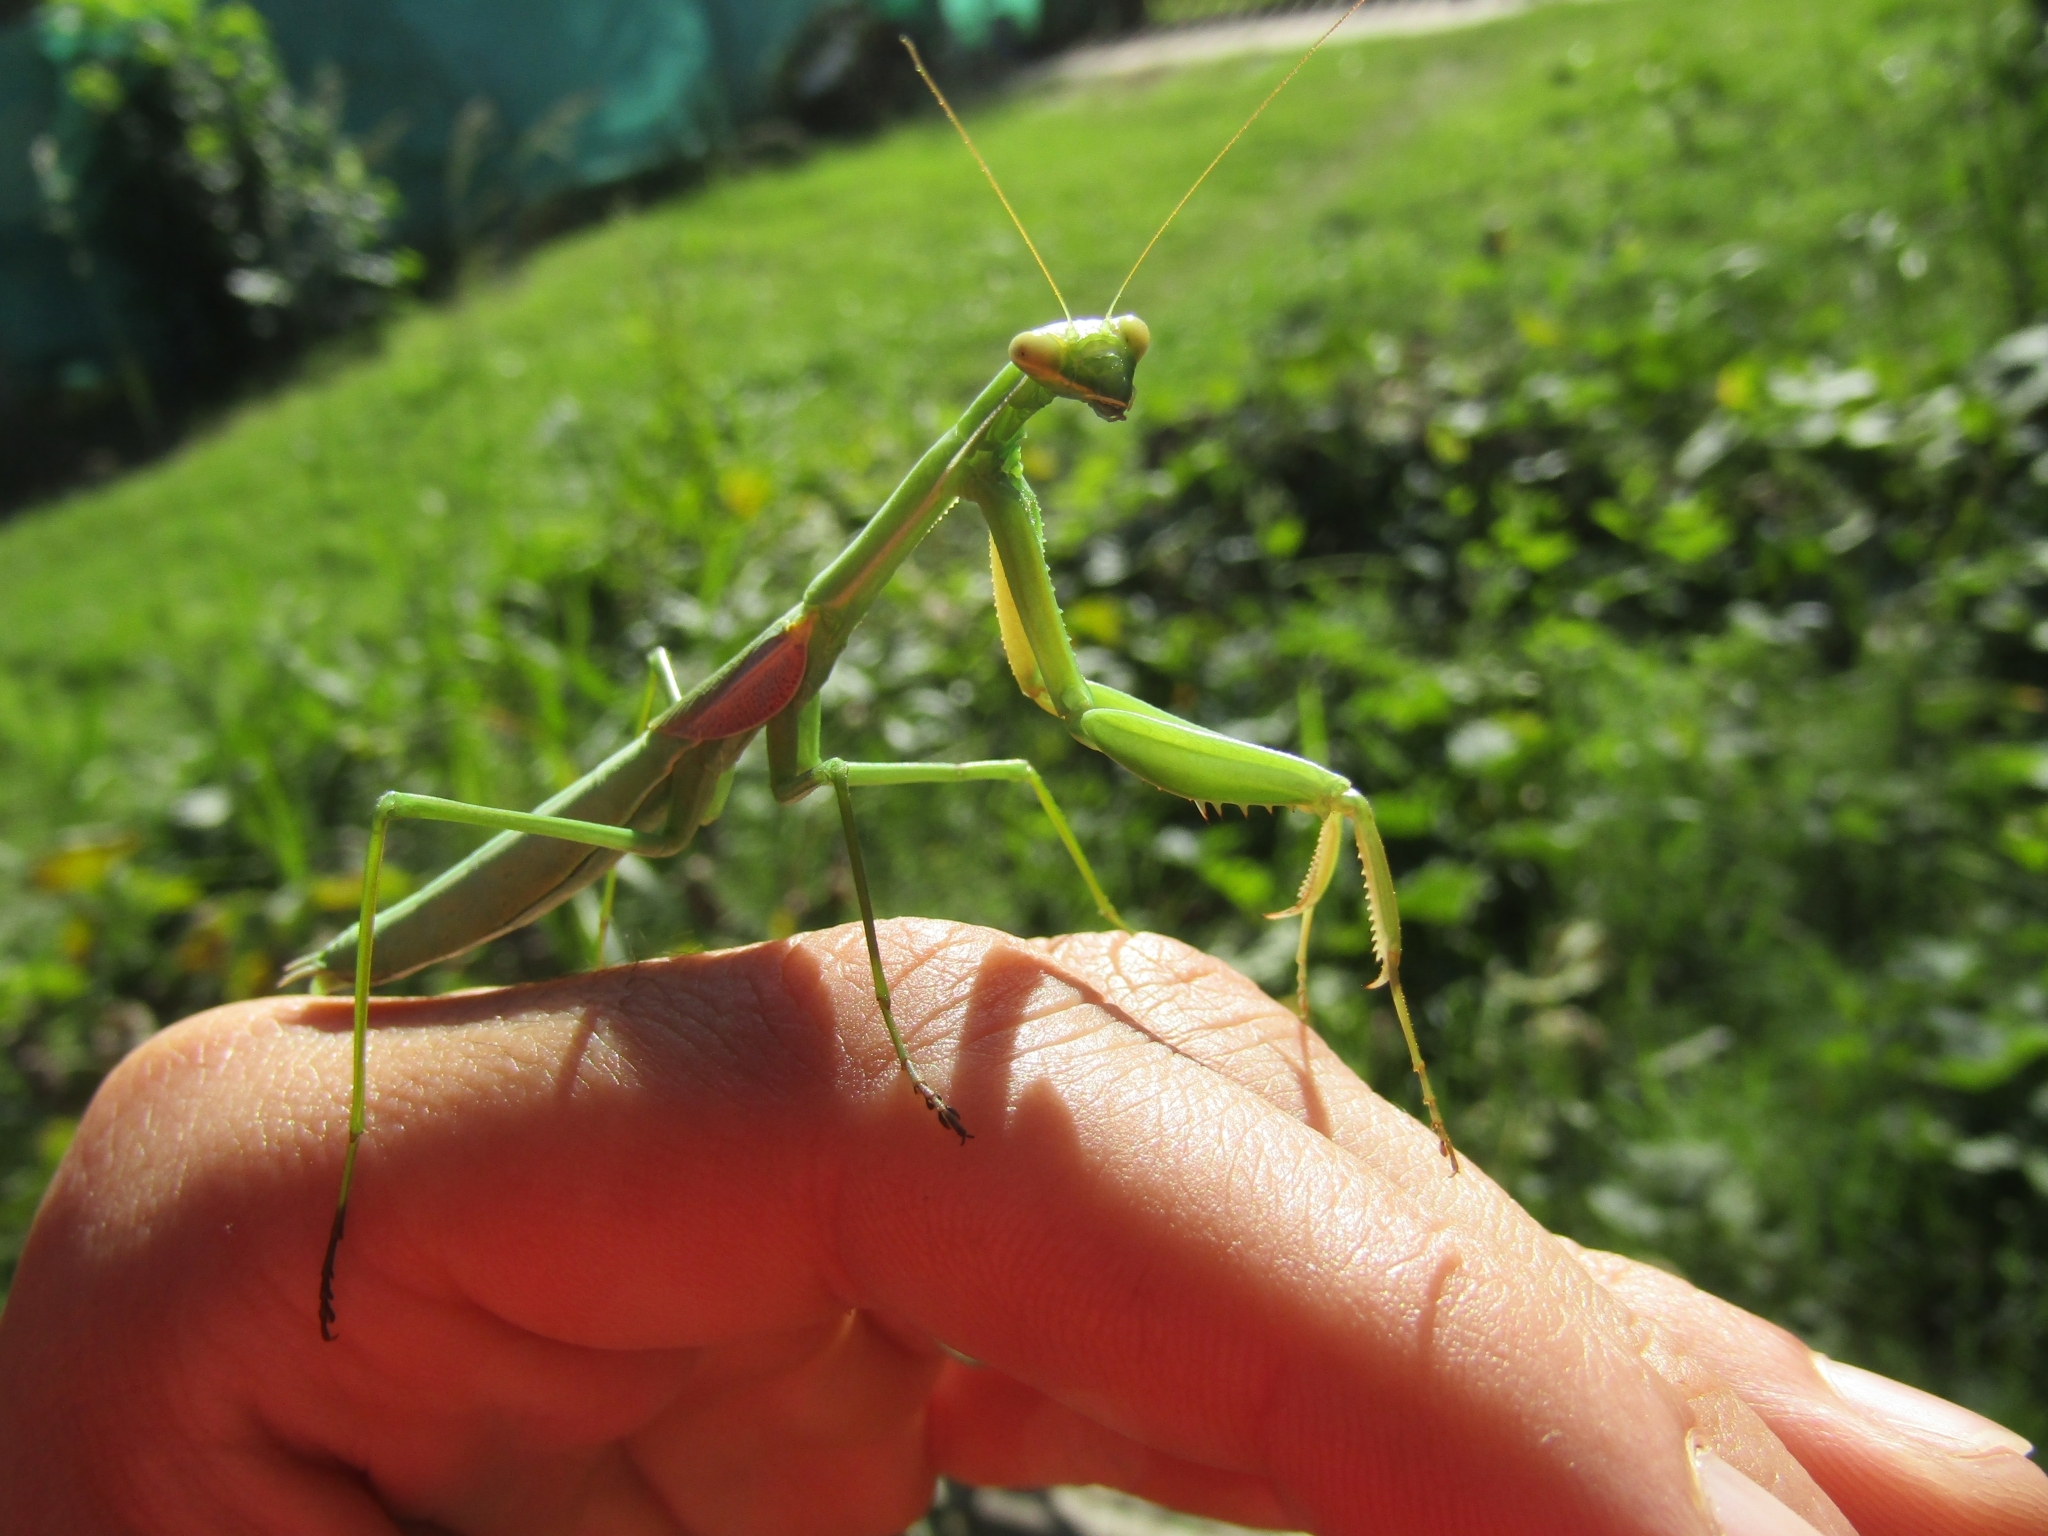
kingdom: Animalia
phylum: Arthropoda
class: Insecta
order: Mantodea
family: Coptopterygidae
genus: Coptopteryx
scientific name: Coptopteryx argentina
